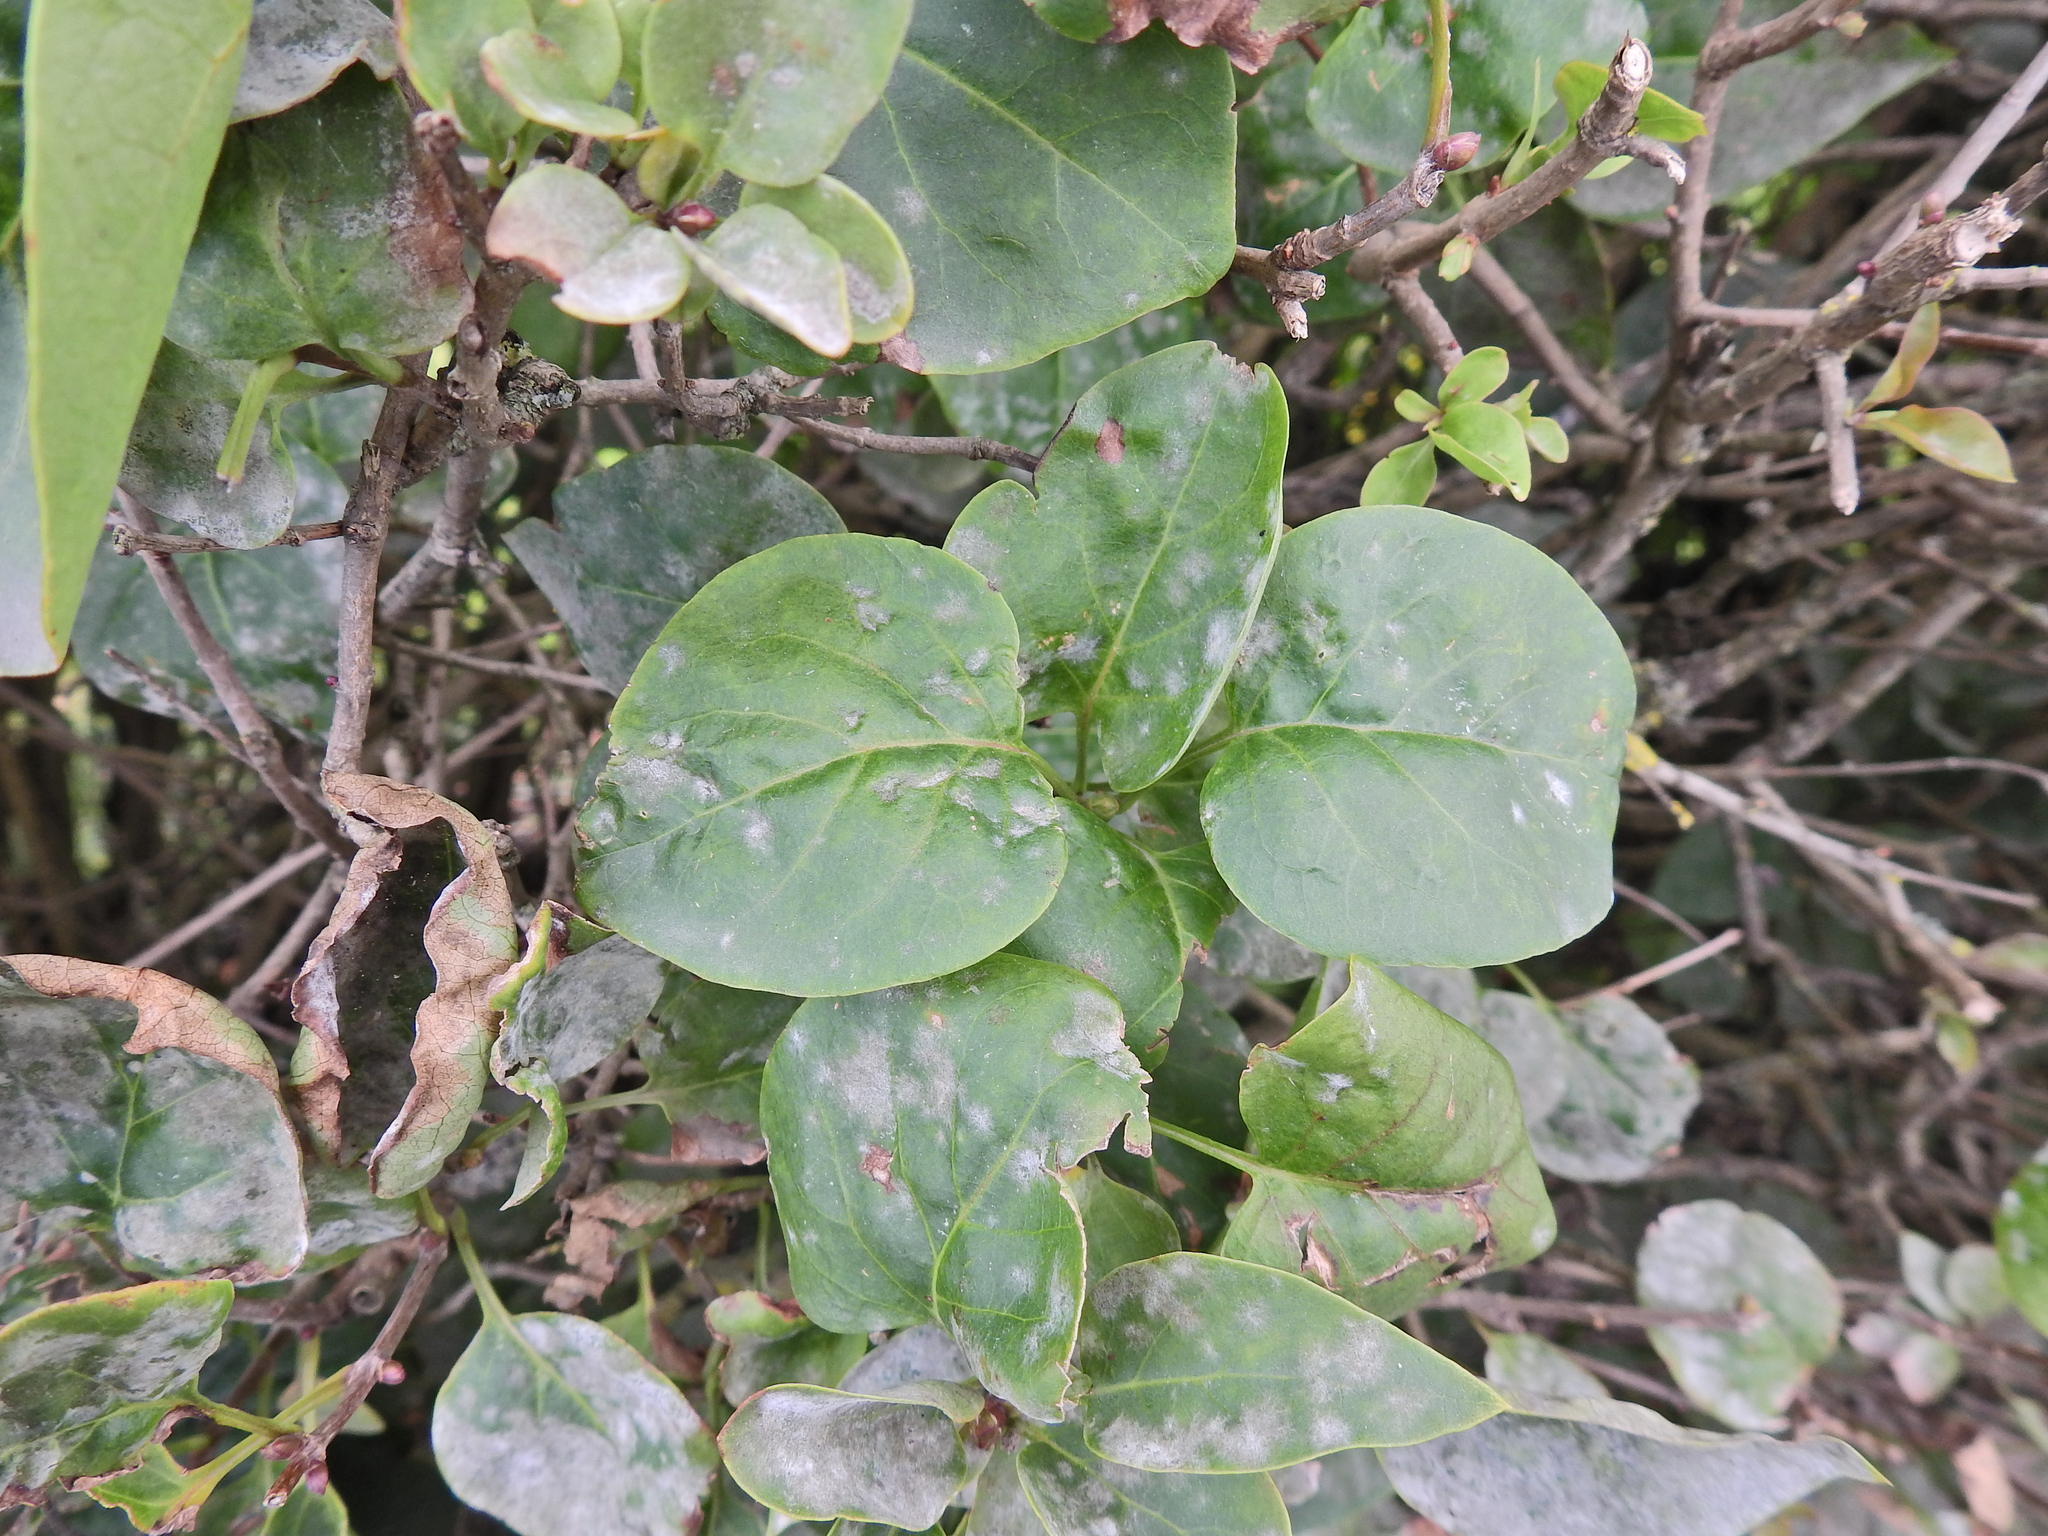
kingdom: Plantae
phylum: Tracheophyta
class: Magnoliopsida
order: Lamiales
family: Oleaceae
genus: Syringa
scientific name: Syringa vulgaris
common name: Common lilac
